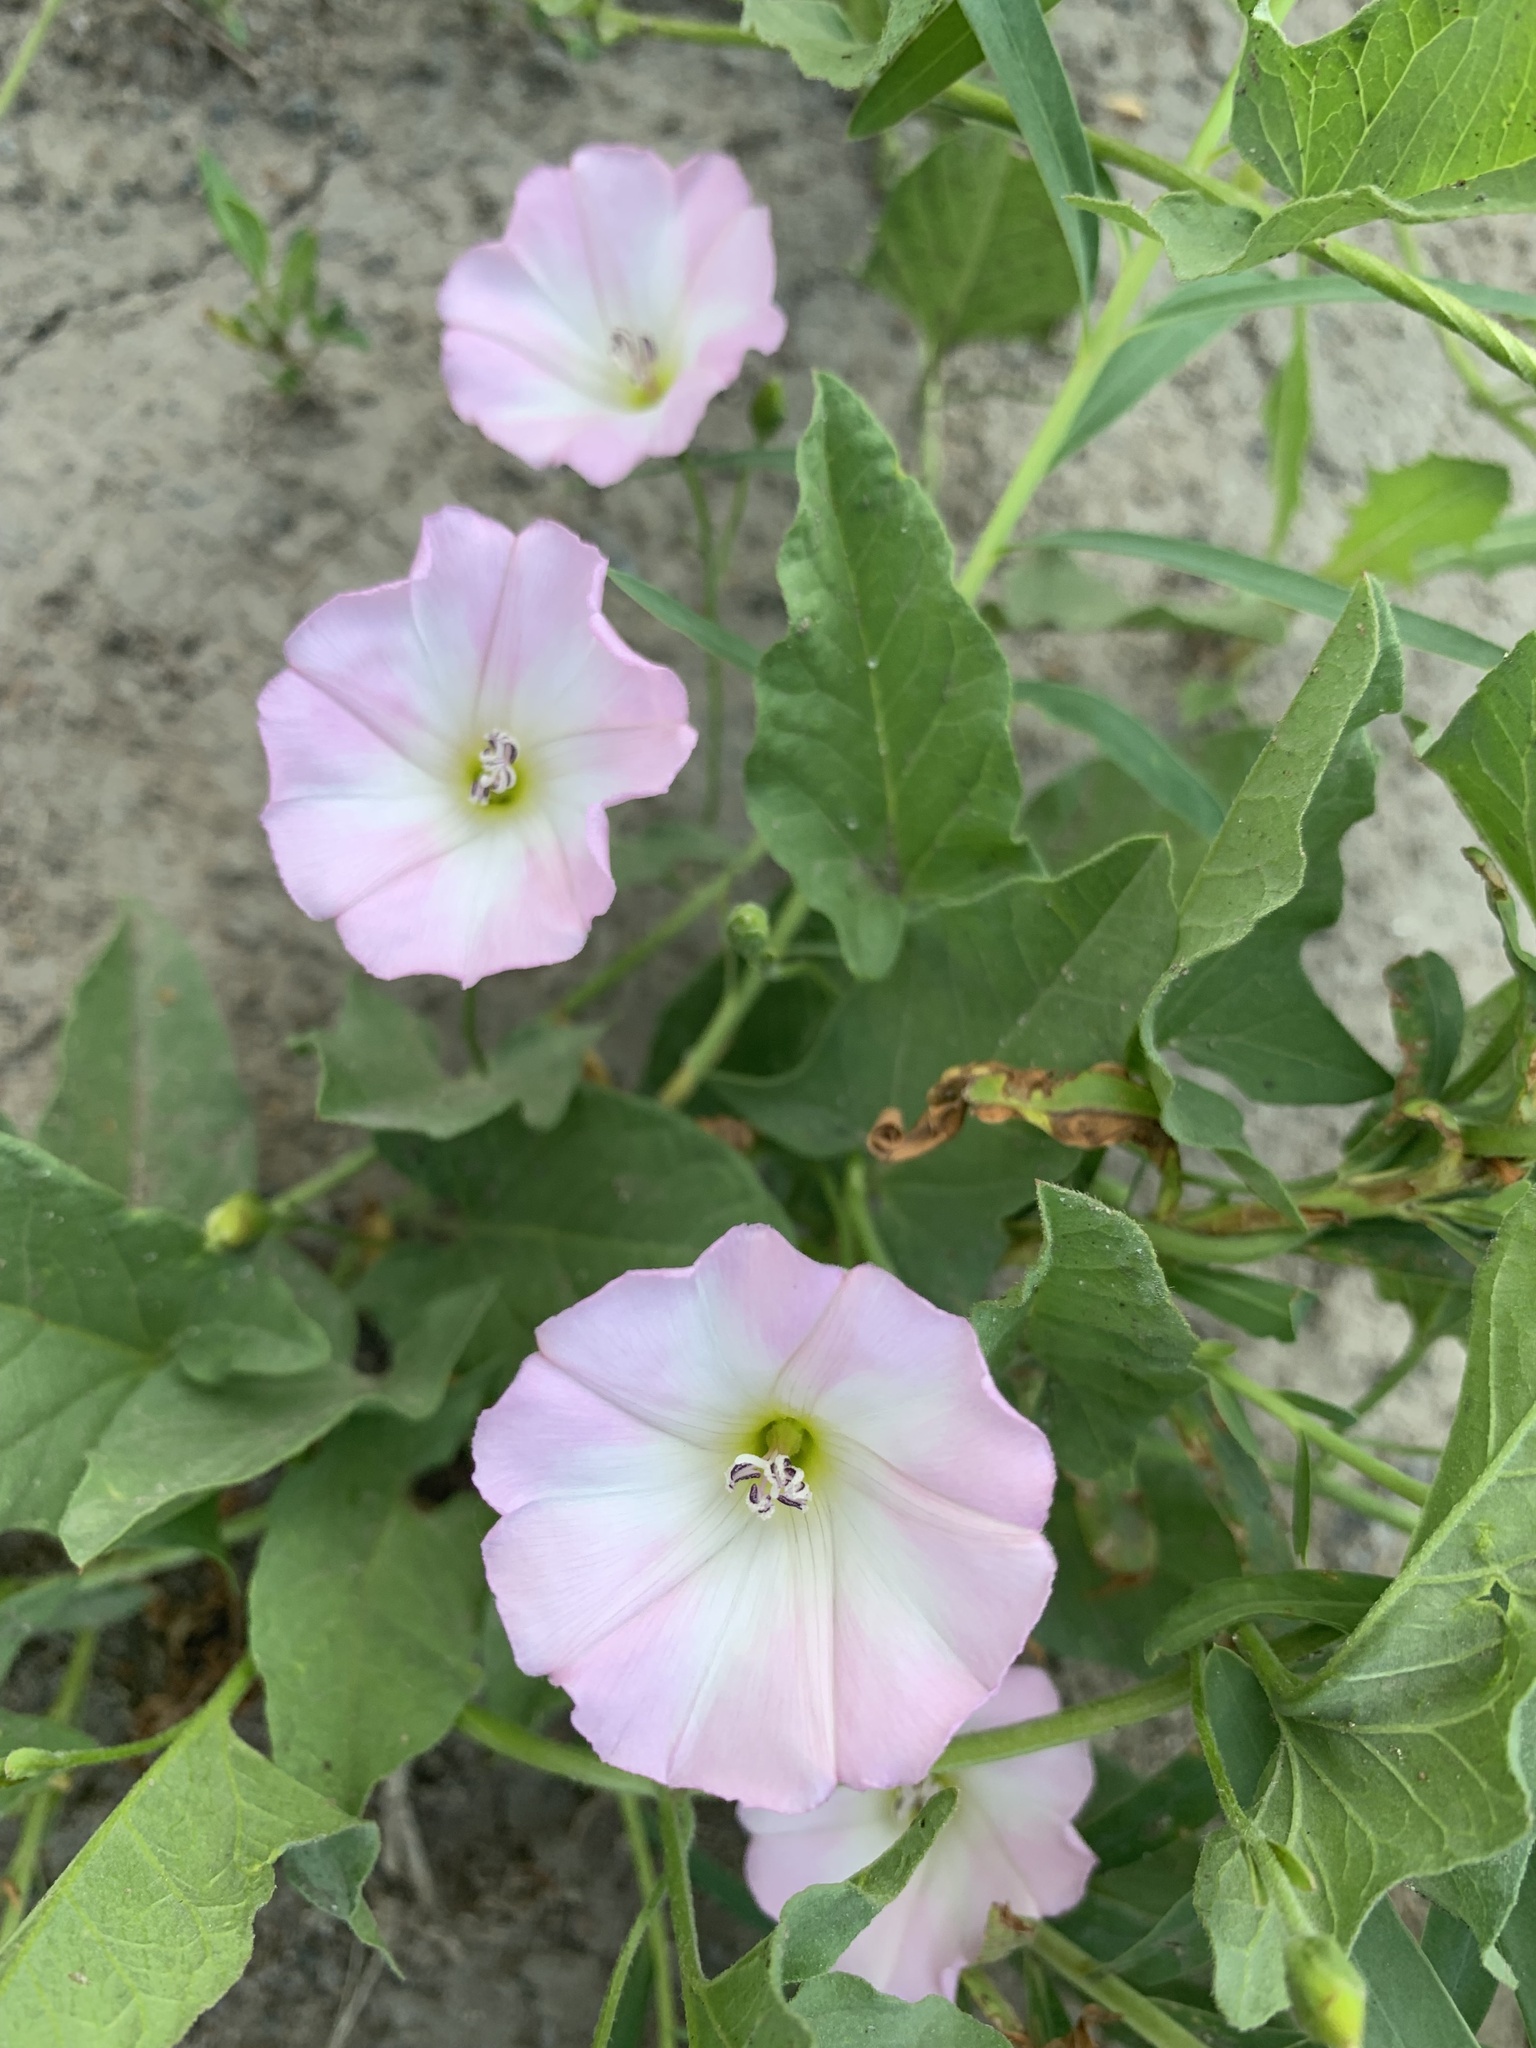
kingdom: Plantae
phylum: Tracheophyta
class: Magnoliopsida
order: Solanales
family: Convolvulaceae
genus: Convolvulus
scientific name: Convolvulus arvensis
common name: Field bindweed
